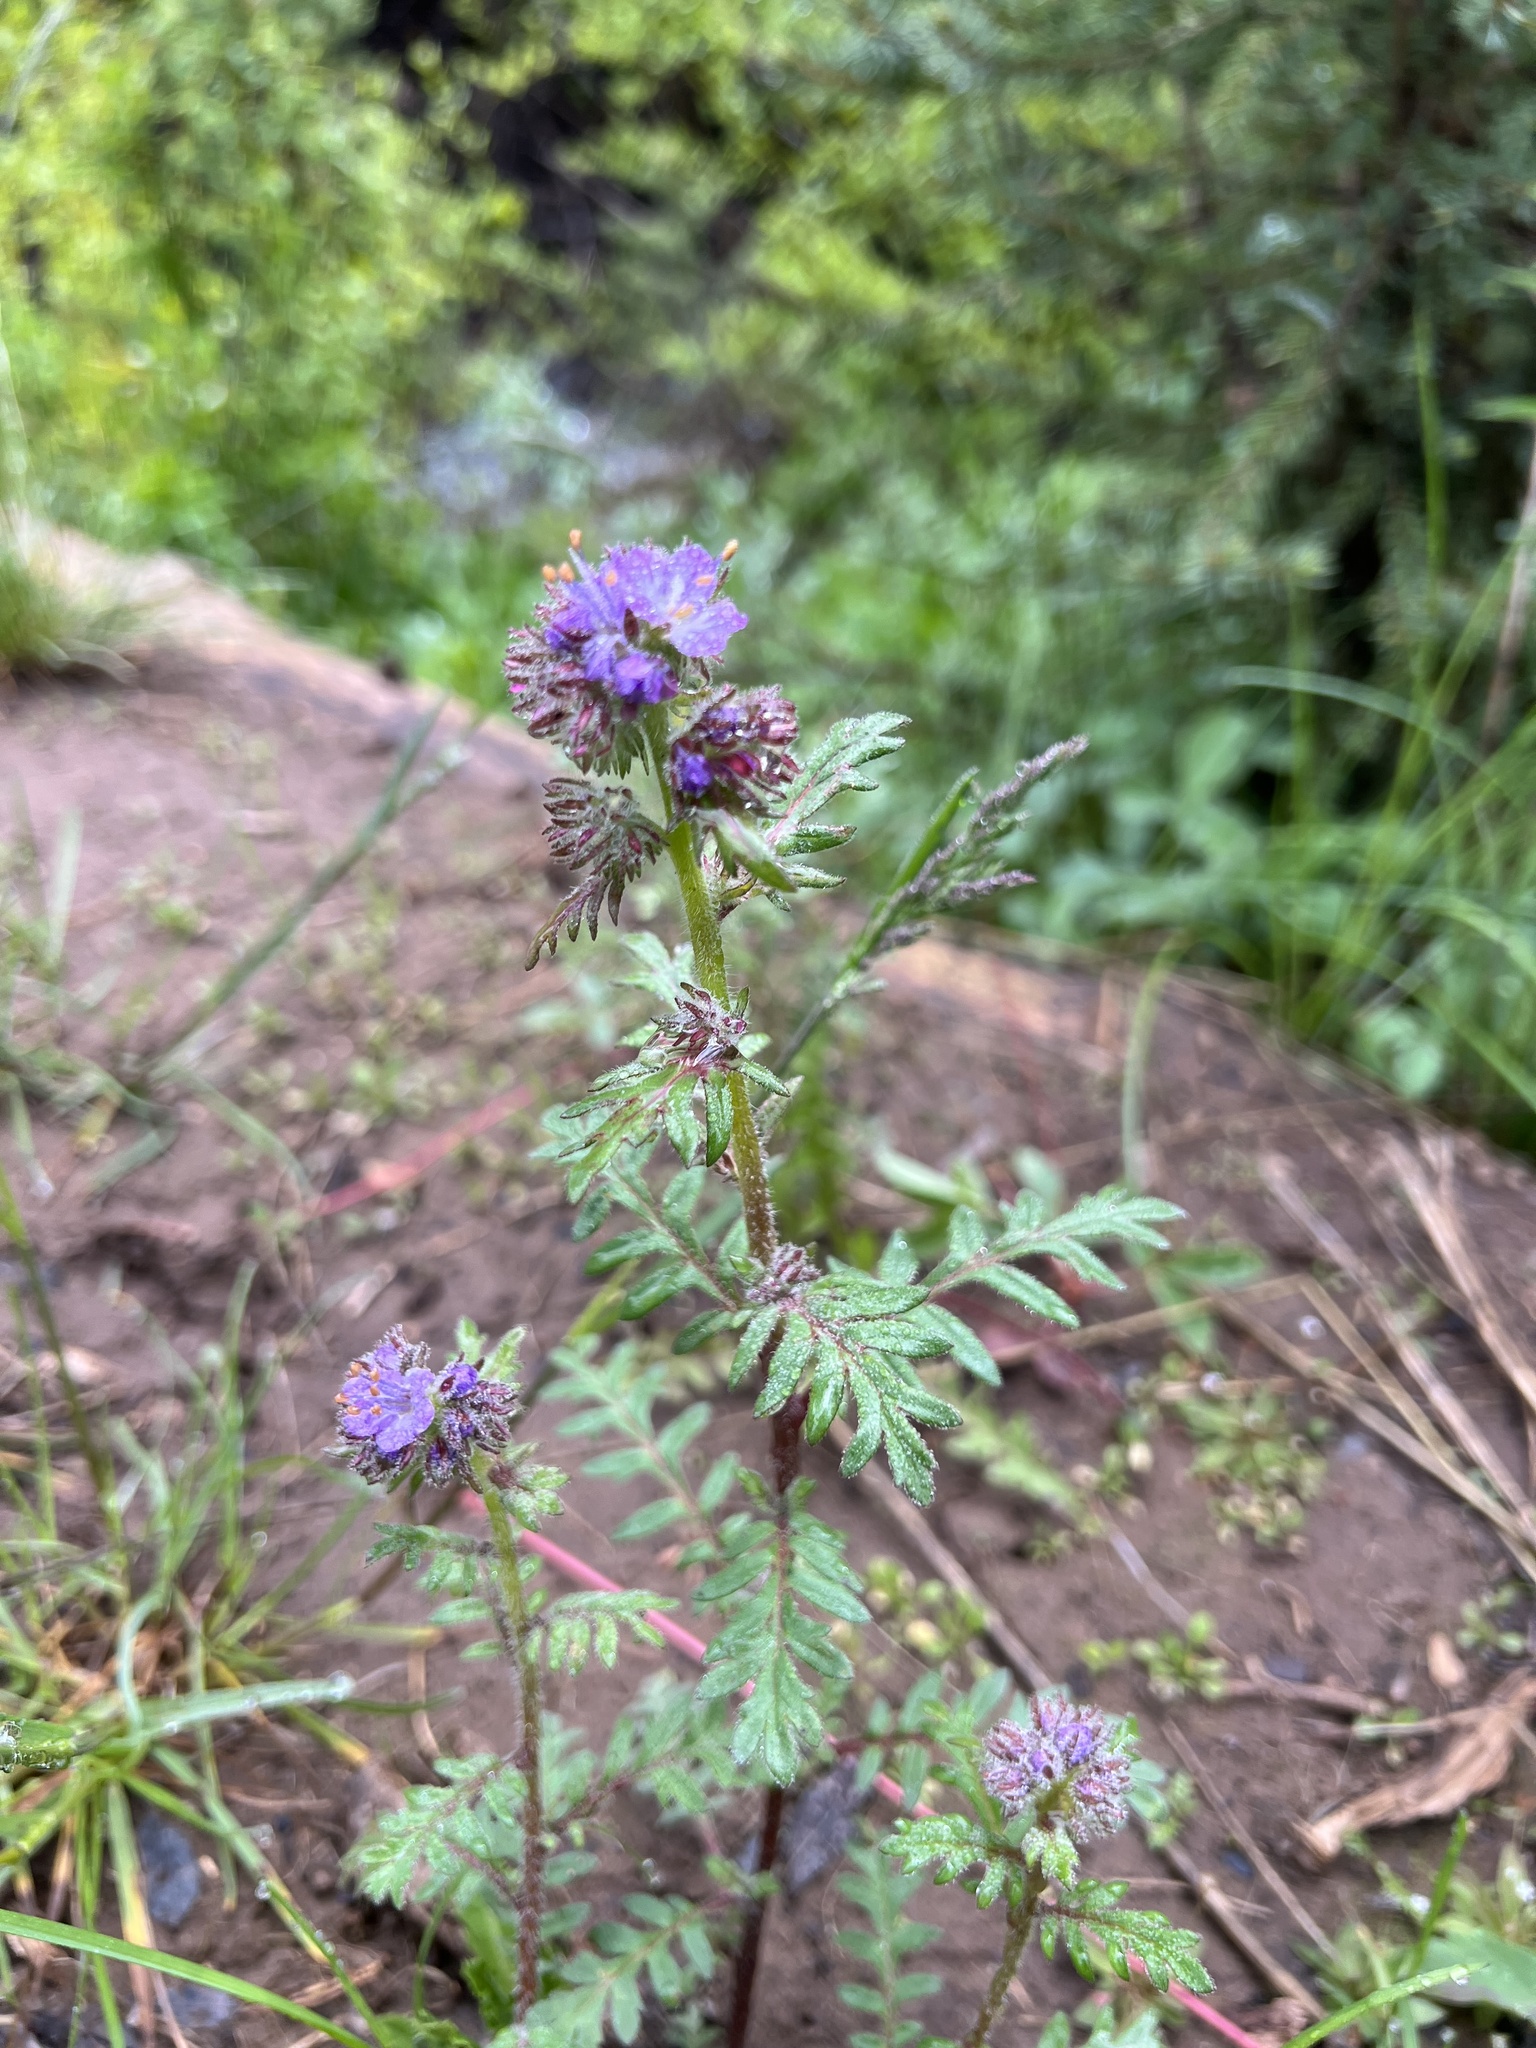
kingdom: Plantae
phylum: Tracheophyta
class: Magnoliopsida
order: Boraginales
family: Hydrophyllaceae
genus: Phacelia
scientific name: Phacelia franklinii
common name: Franklin's phacelia
